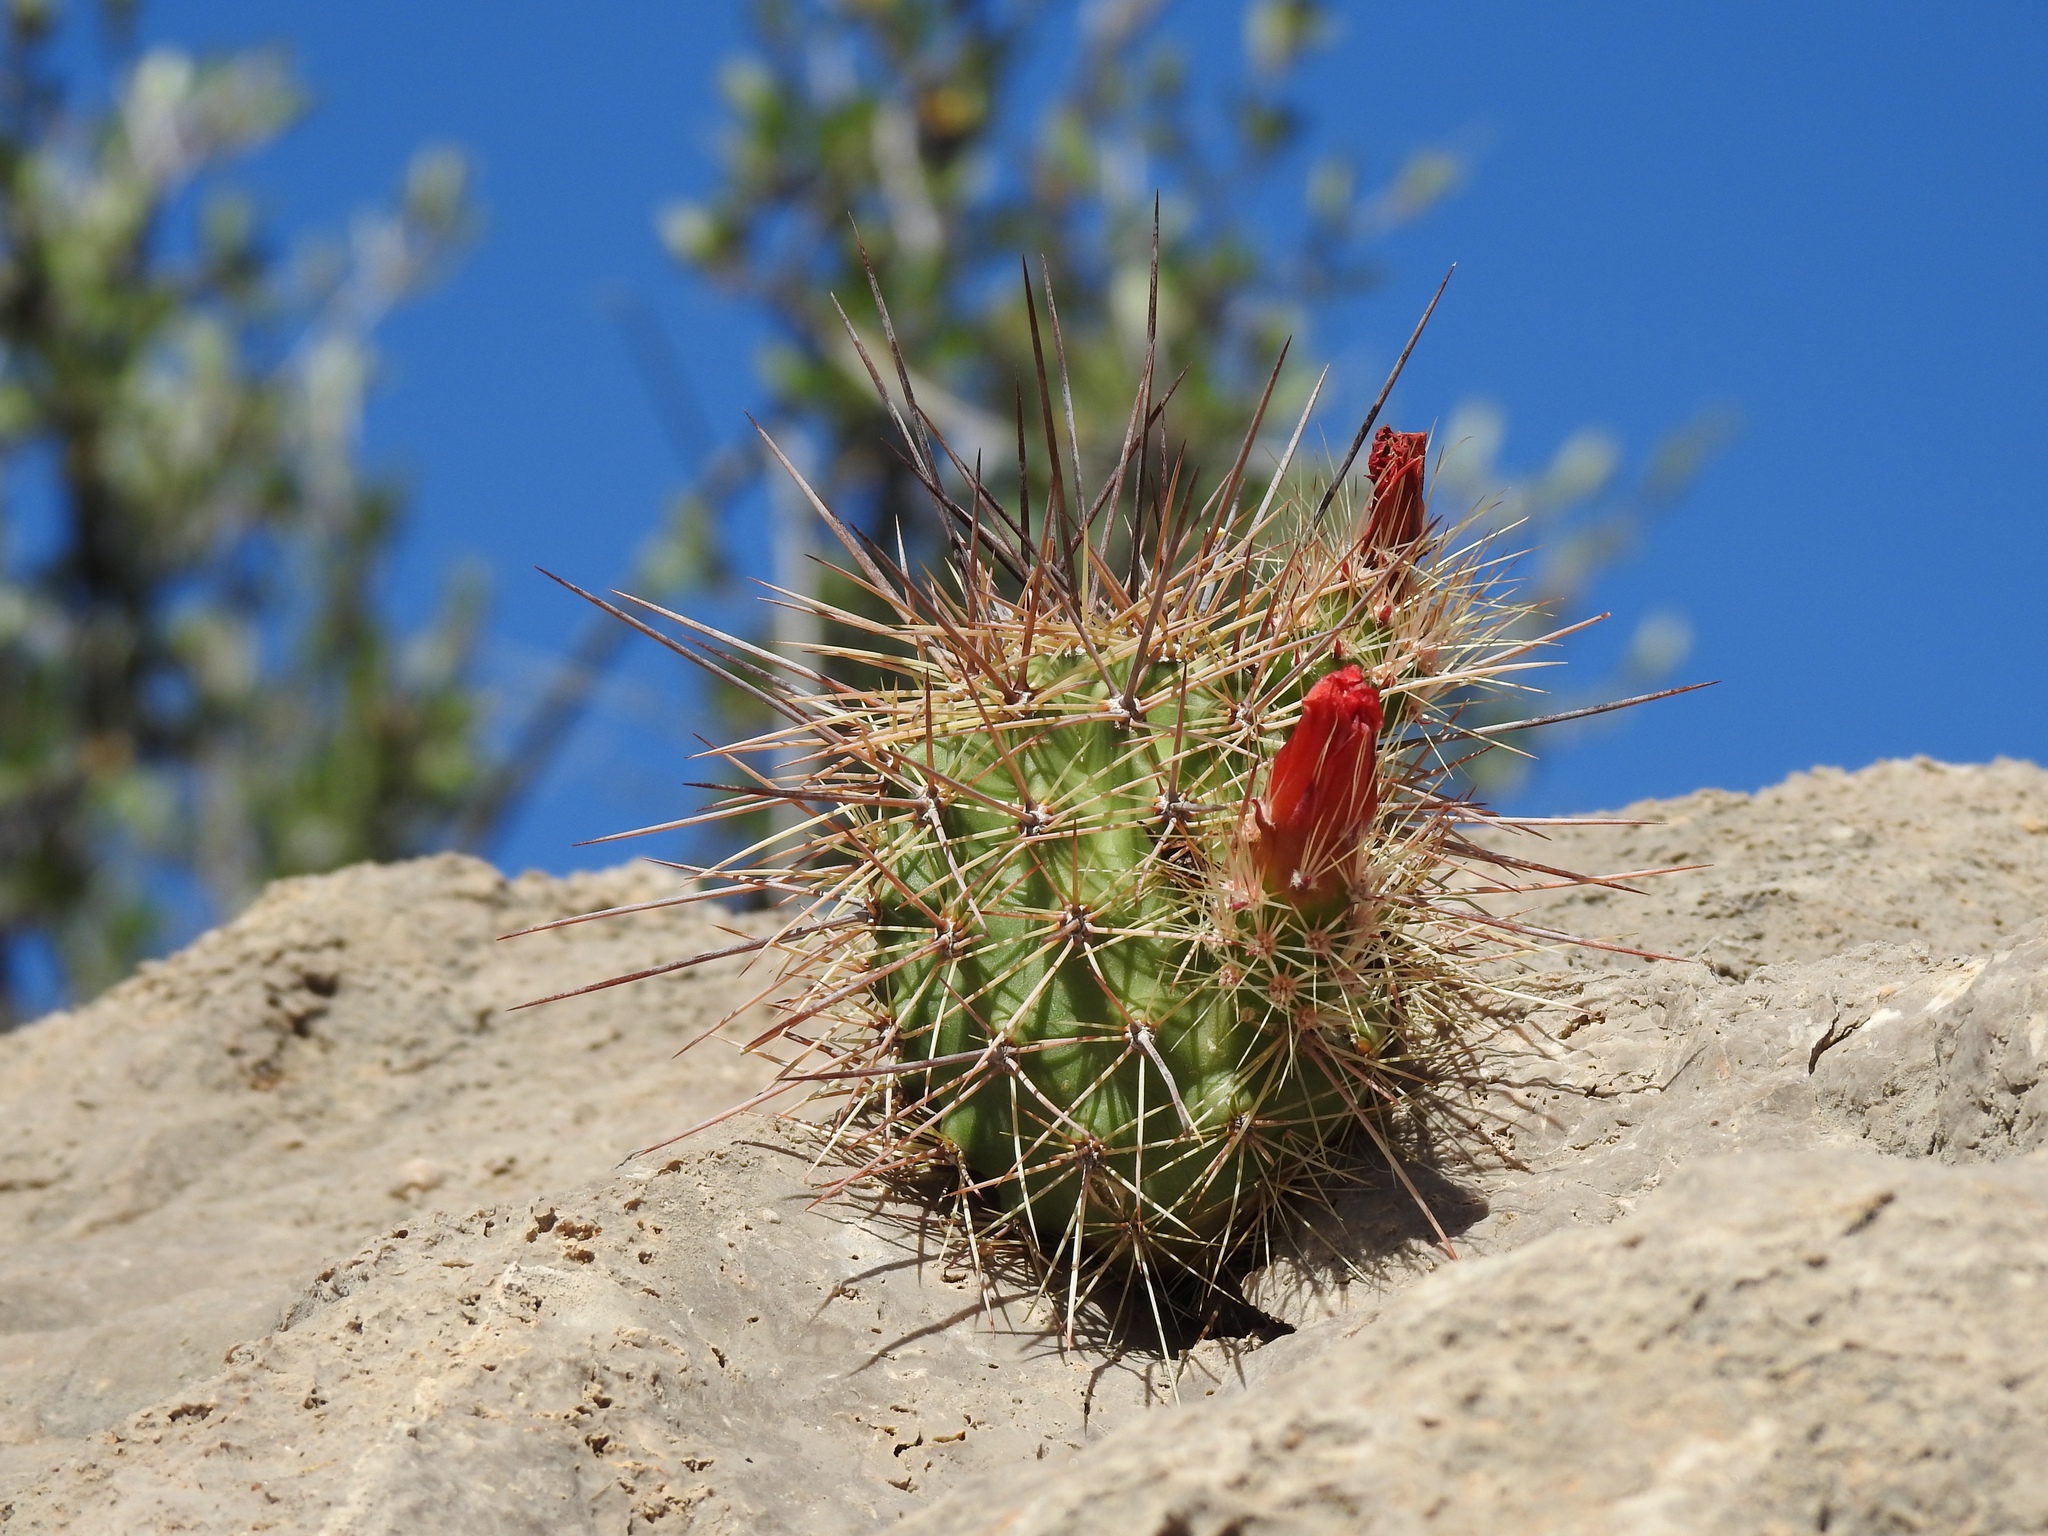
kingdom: Plantae
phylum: Tracheophyta
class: Magnoliopsida
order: Caryophyllales
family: Cactaceae
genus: Echinocereus
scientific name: Echinocereus coccineus
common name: Scarlet hedgehog cactus
